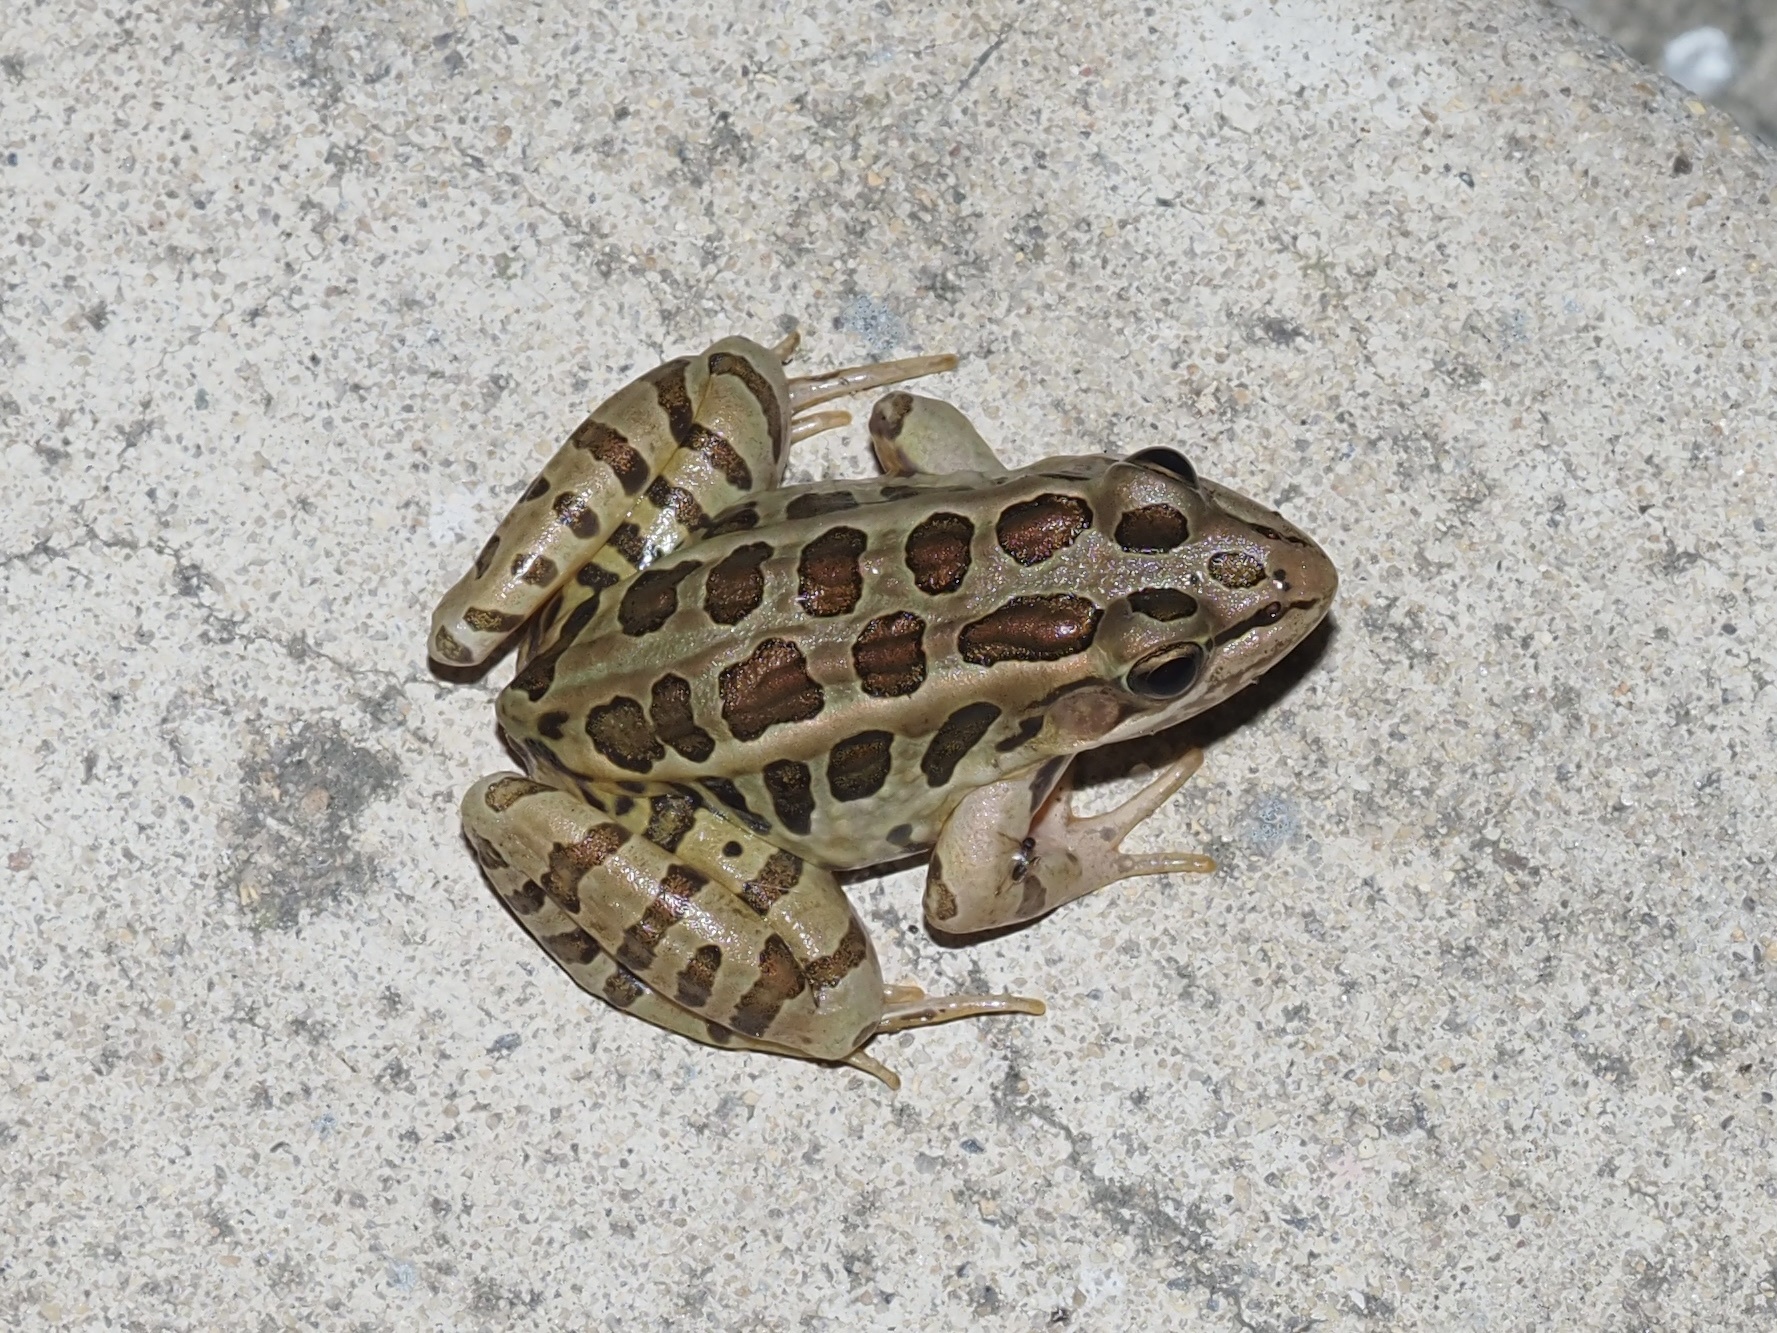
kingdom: Animalia
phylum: Chordata
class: Amphibia
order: Anura
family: Ranidae
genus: Lithobates
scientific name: Lithobates palustris
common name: Pickerel frog
